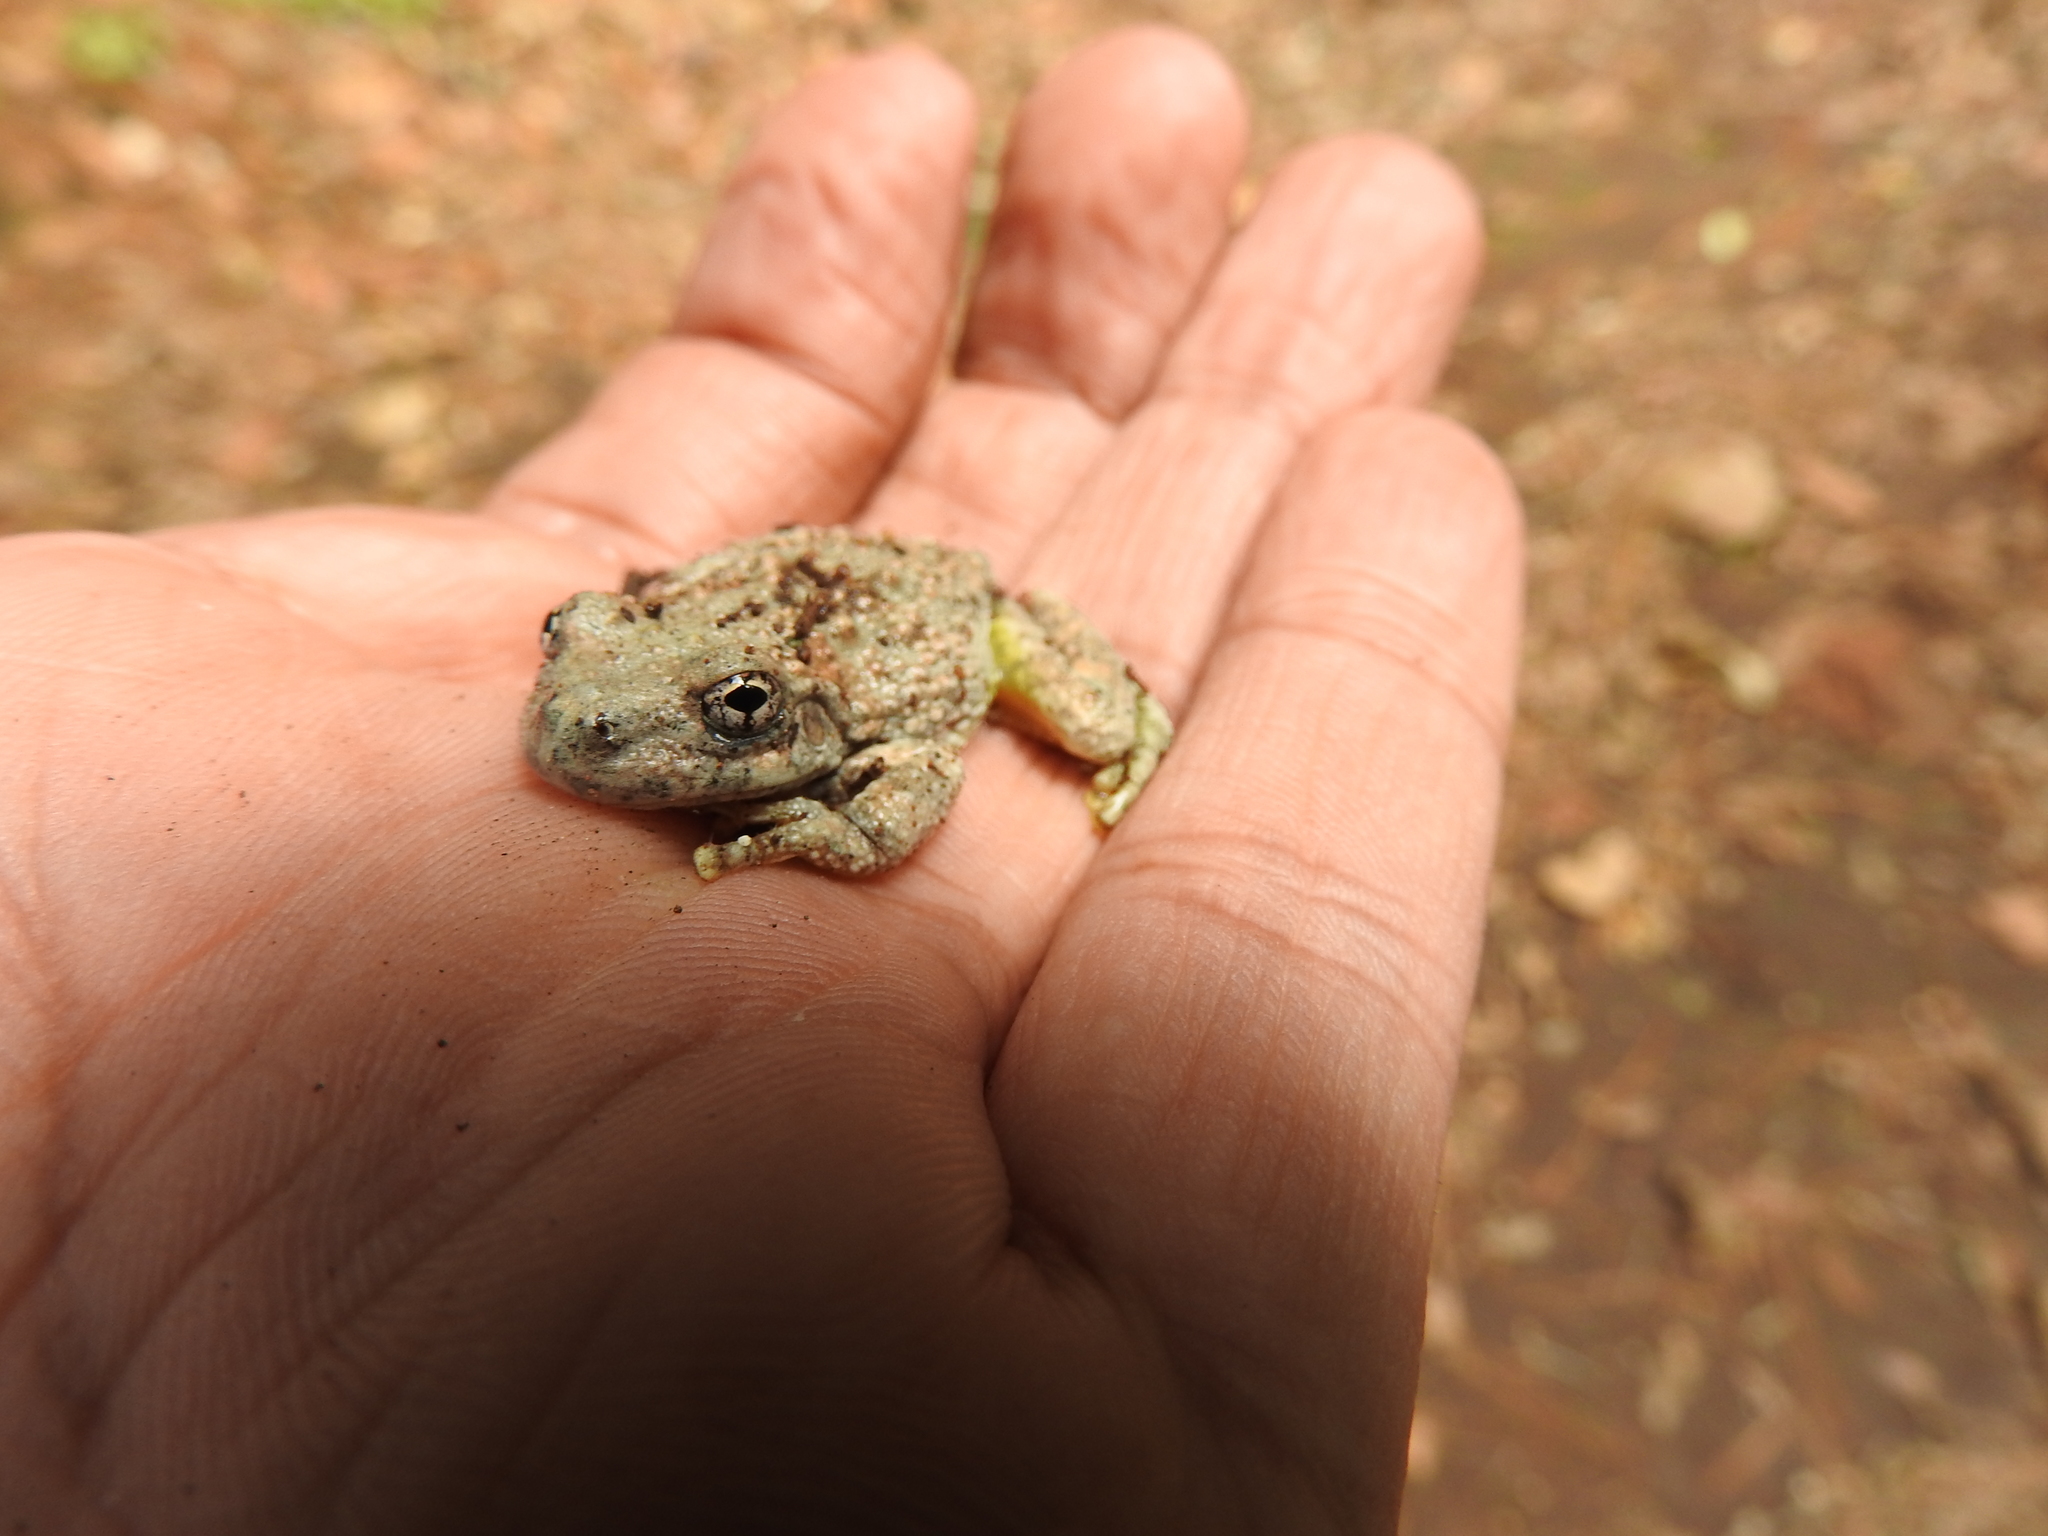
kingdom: Animalia
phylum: Chordata
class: Amphibia
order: Anura
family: Hylidae
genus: Dryophytes
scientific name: Dryophytes arenicolor
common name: Canyon treefrog
